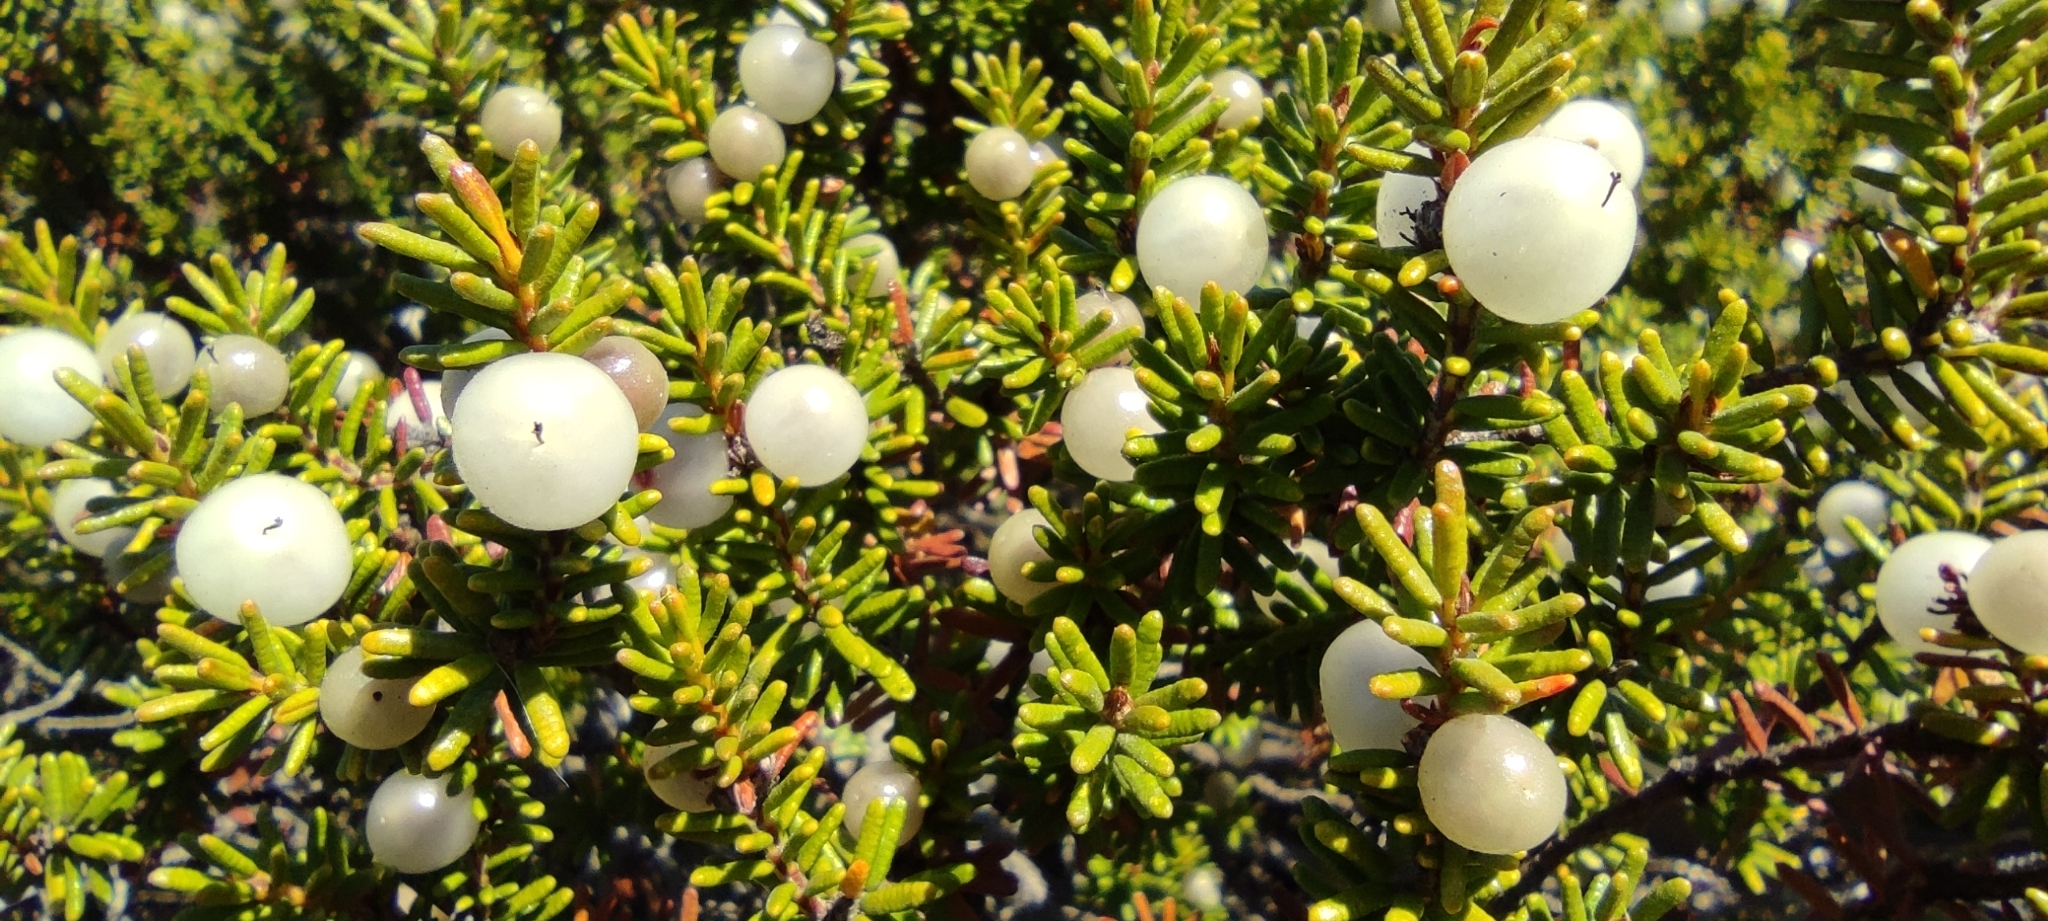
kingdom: Plantae
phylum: Tracheophyta
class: Magnoliopsida
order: Ericales
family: Ericaceae
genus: Corema
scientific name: Corema album
